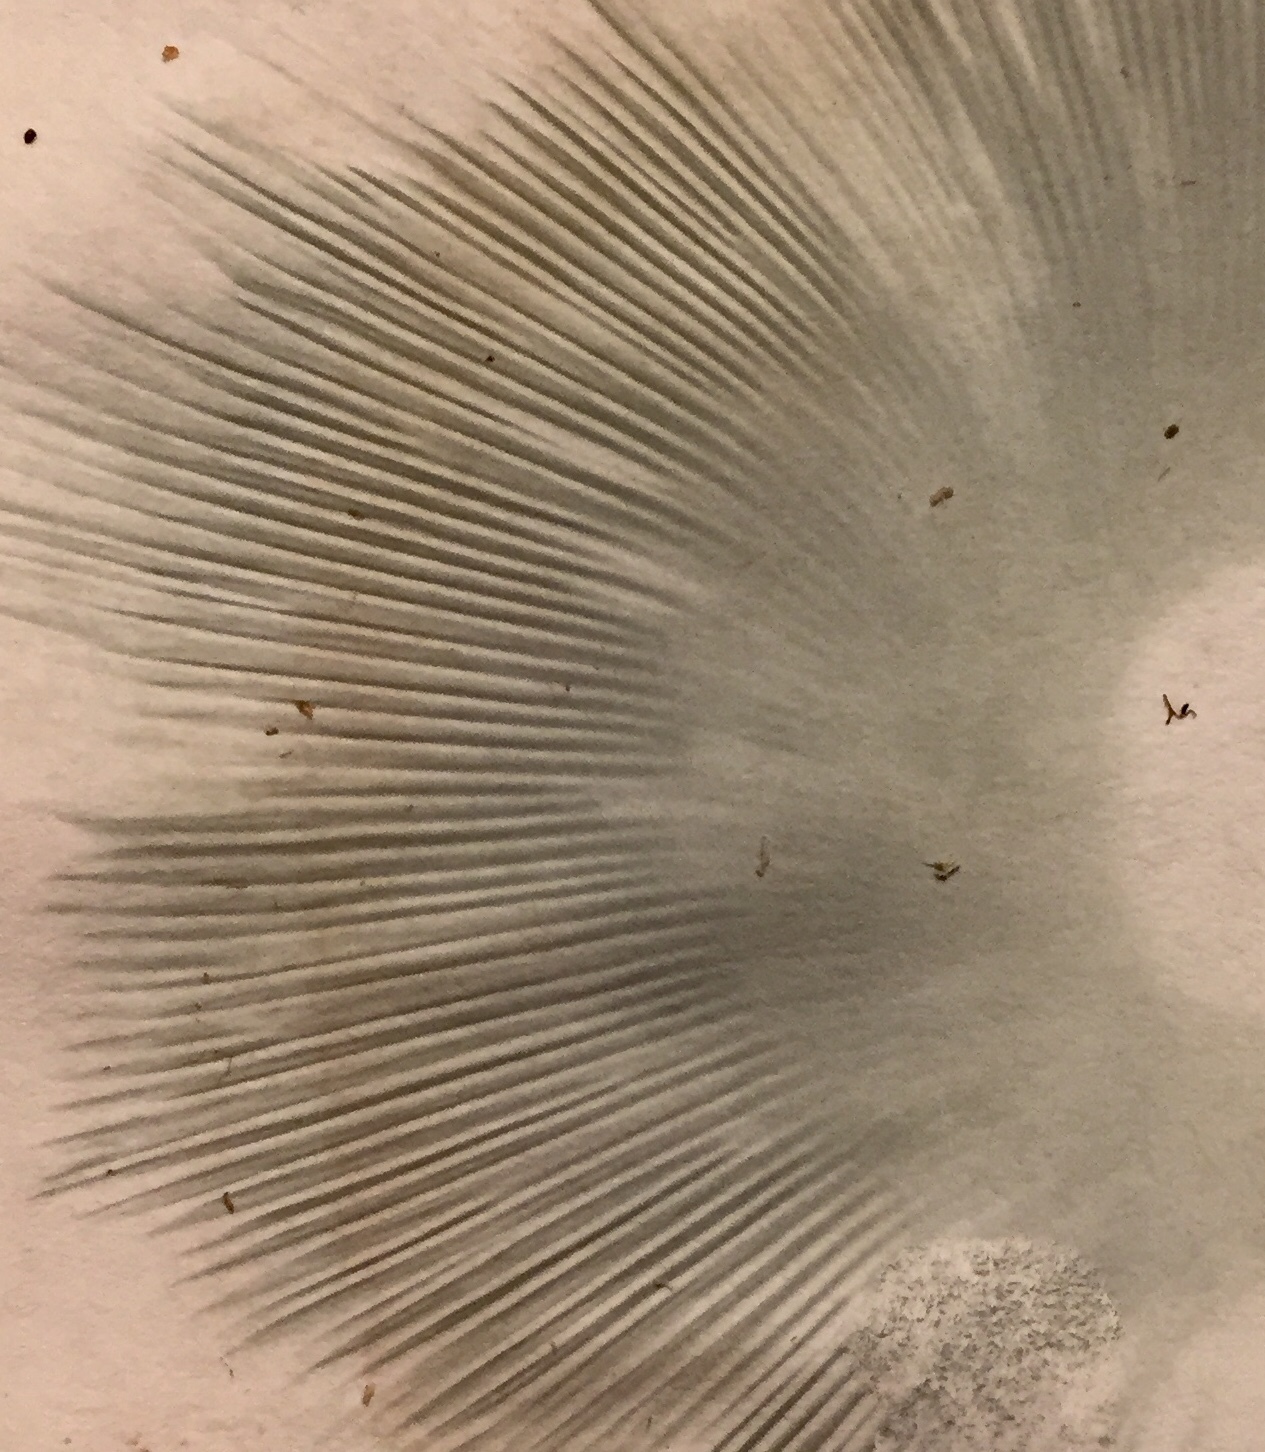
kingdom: Fungi
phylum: Basidiomycota
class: Agaricomycetes
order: Agaricales
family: Agaricaceae
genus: Chlorophyllum
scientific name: Chlorophyllum molybdites
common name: False parasol
